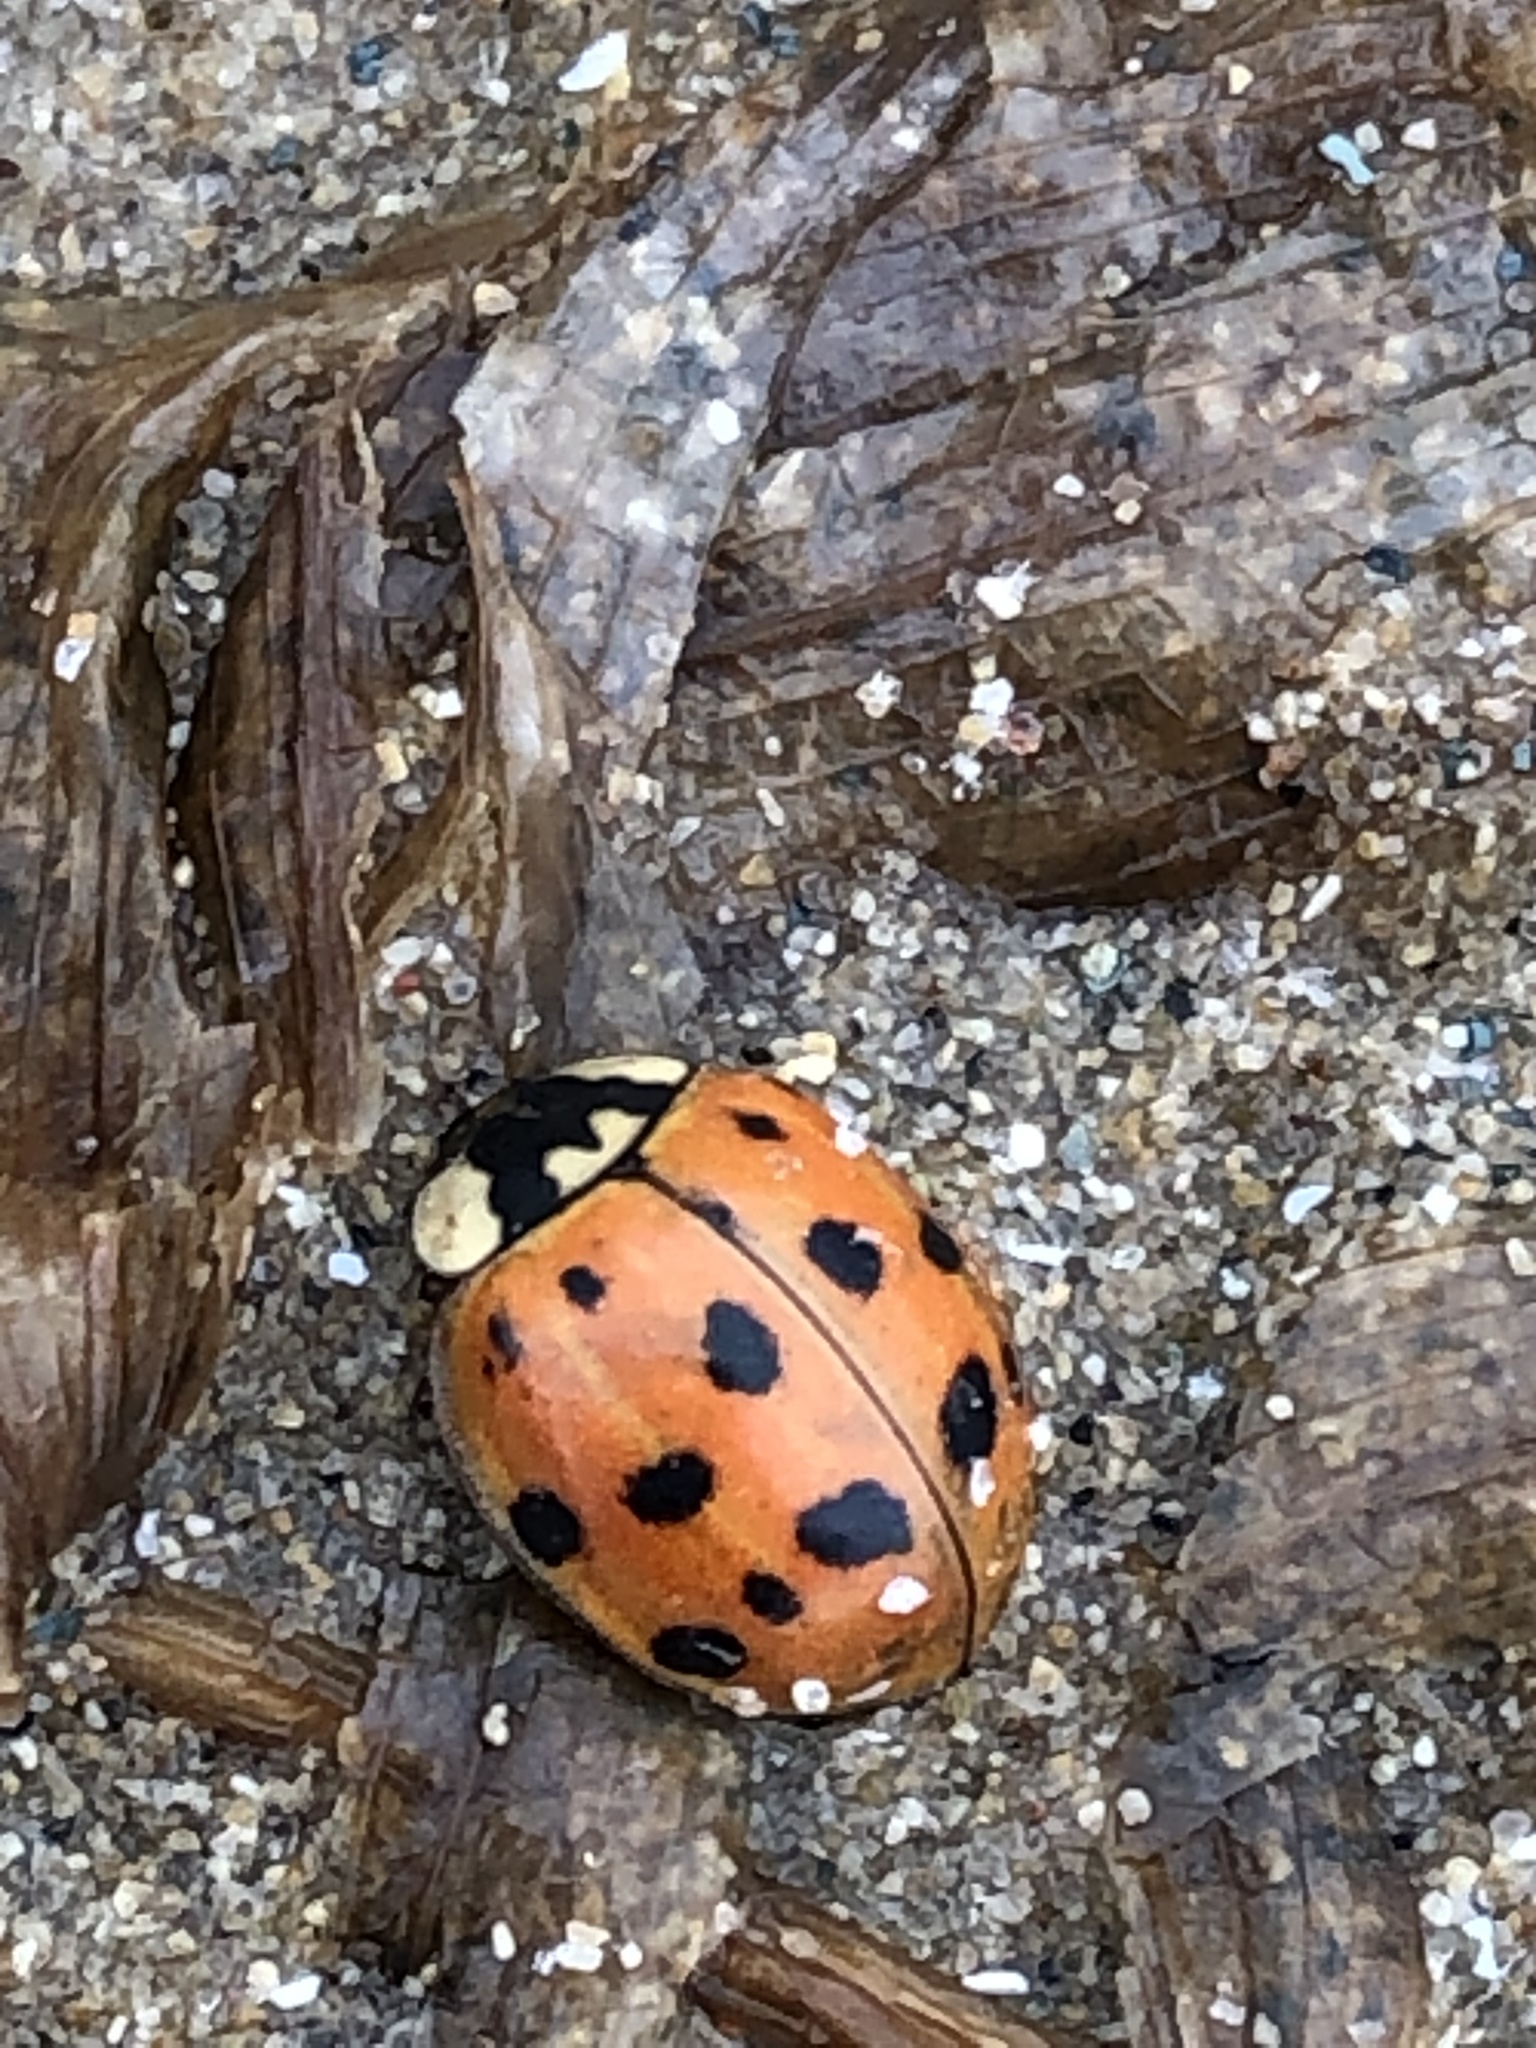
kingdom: Animalia
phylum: Arthropoda
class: Insecta
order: Coleoptera
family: Coccinellidae
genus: Harmonia
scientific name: Harmonia axyridis
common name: Harlequin ladybird
